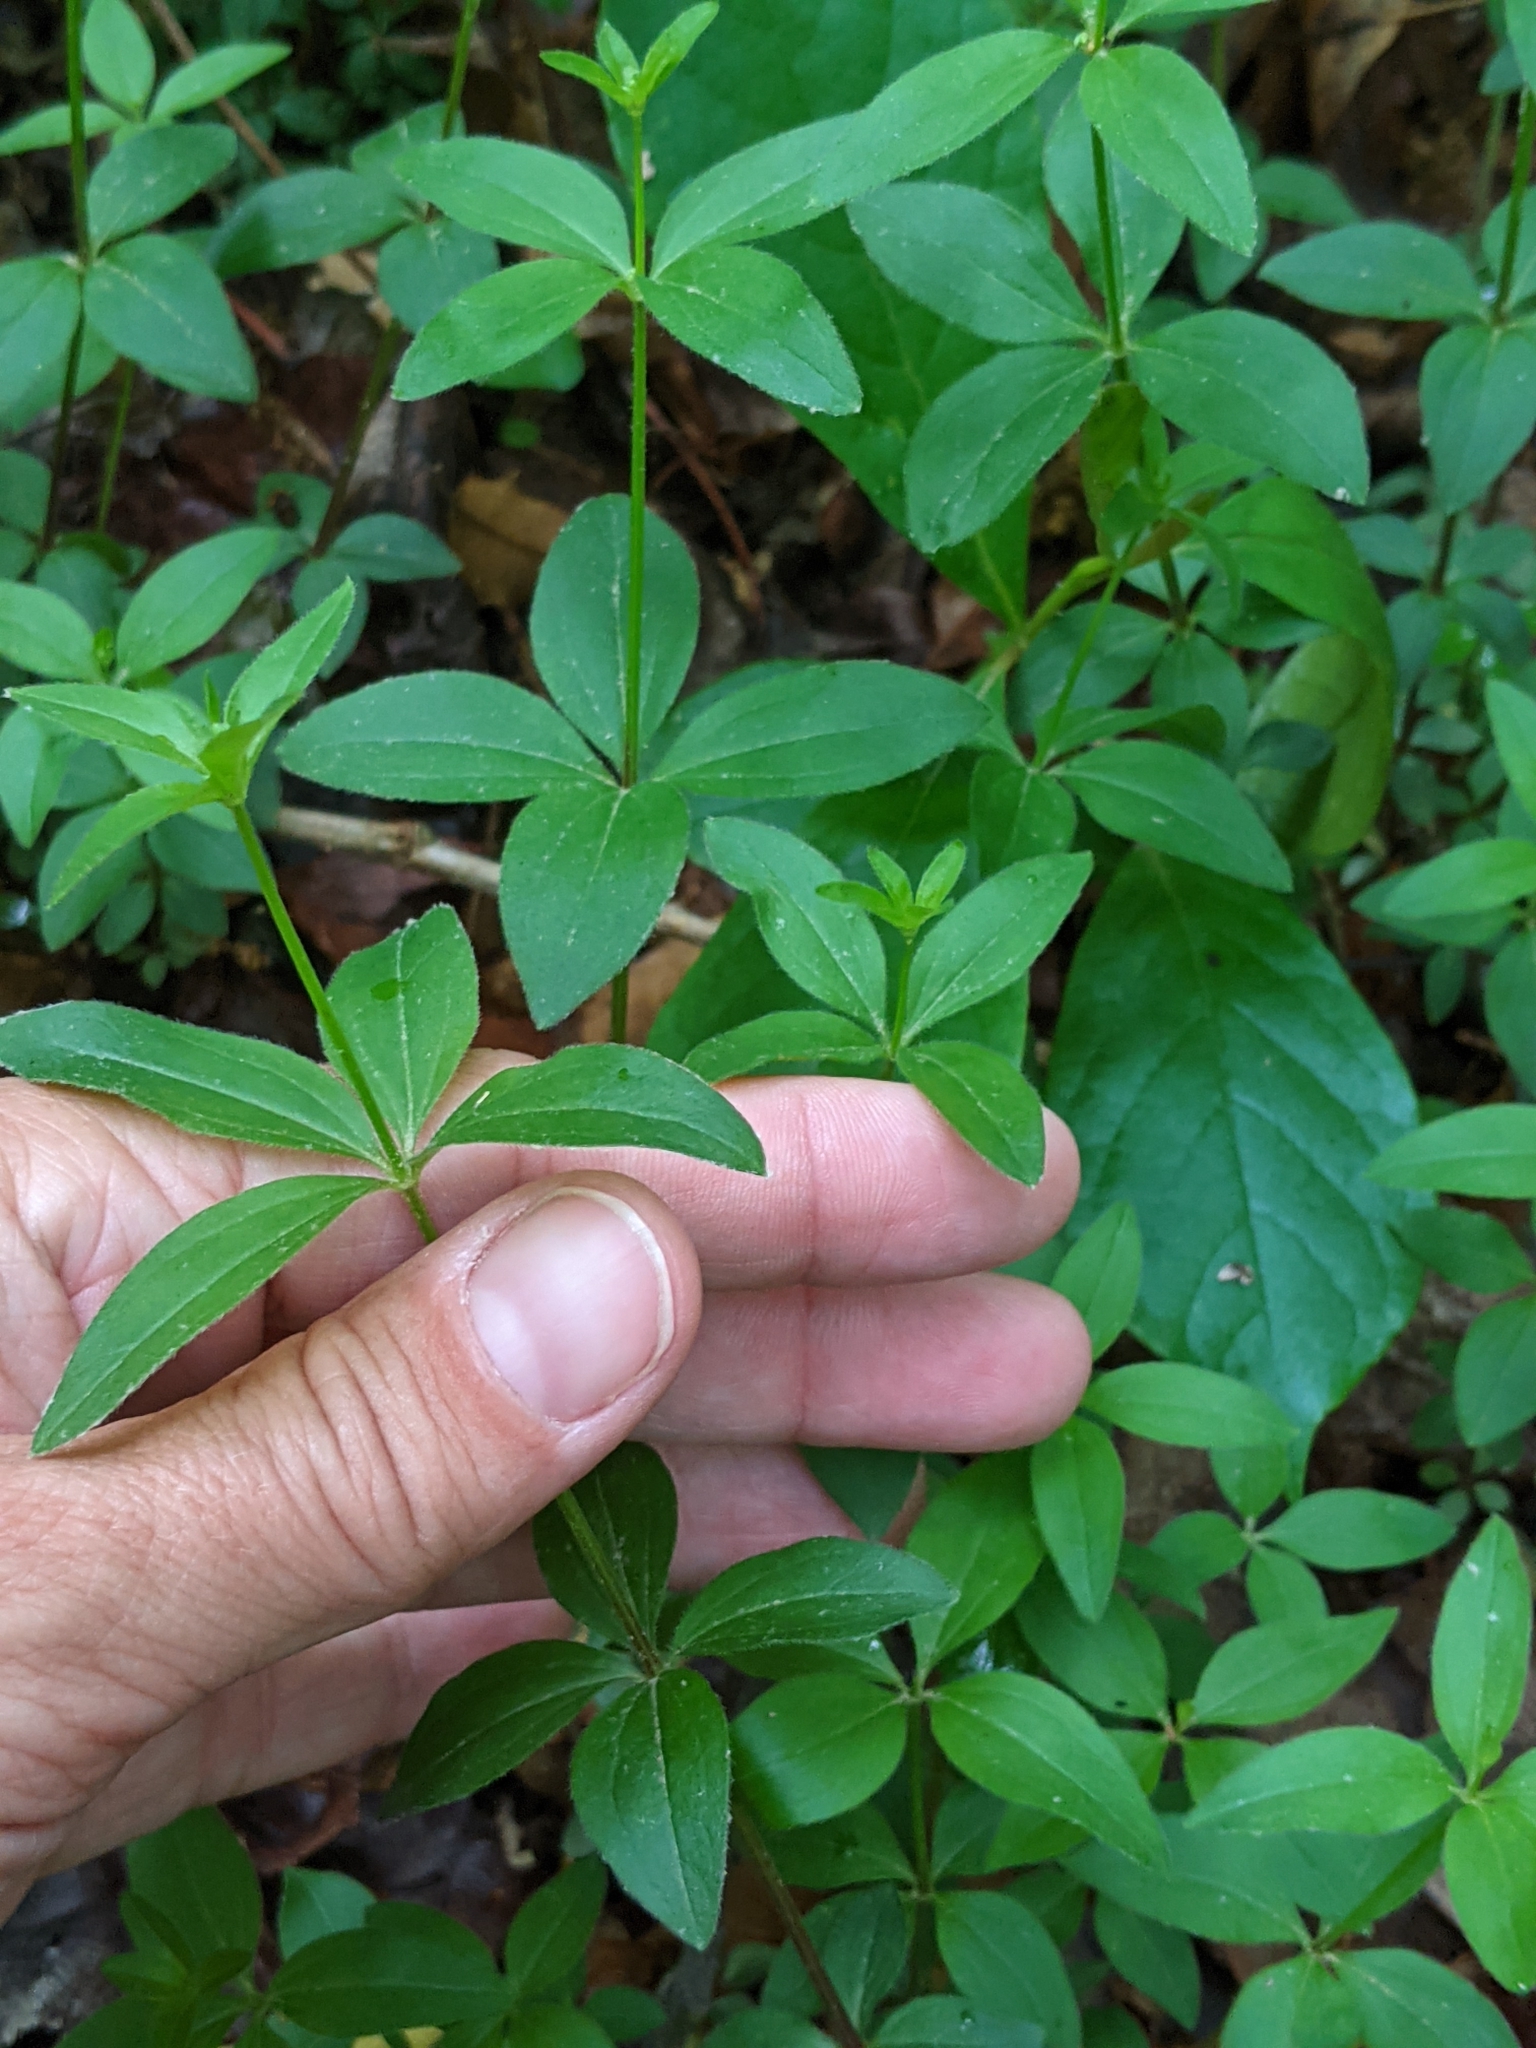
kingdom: Plantae
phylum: Tracheophyta
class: Magnoliopsida
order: Gentianales
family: Rubiaceae
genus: Galium
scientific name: Galium circaezans
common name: Forest bedstraw
